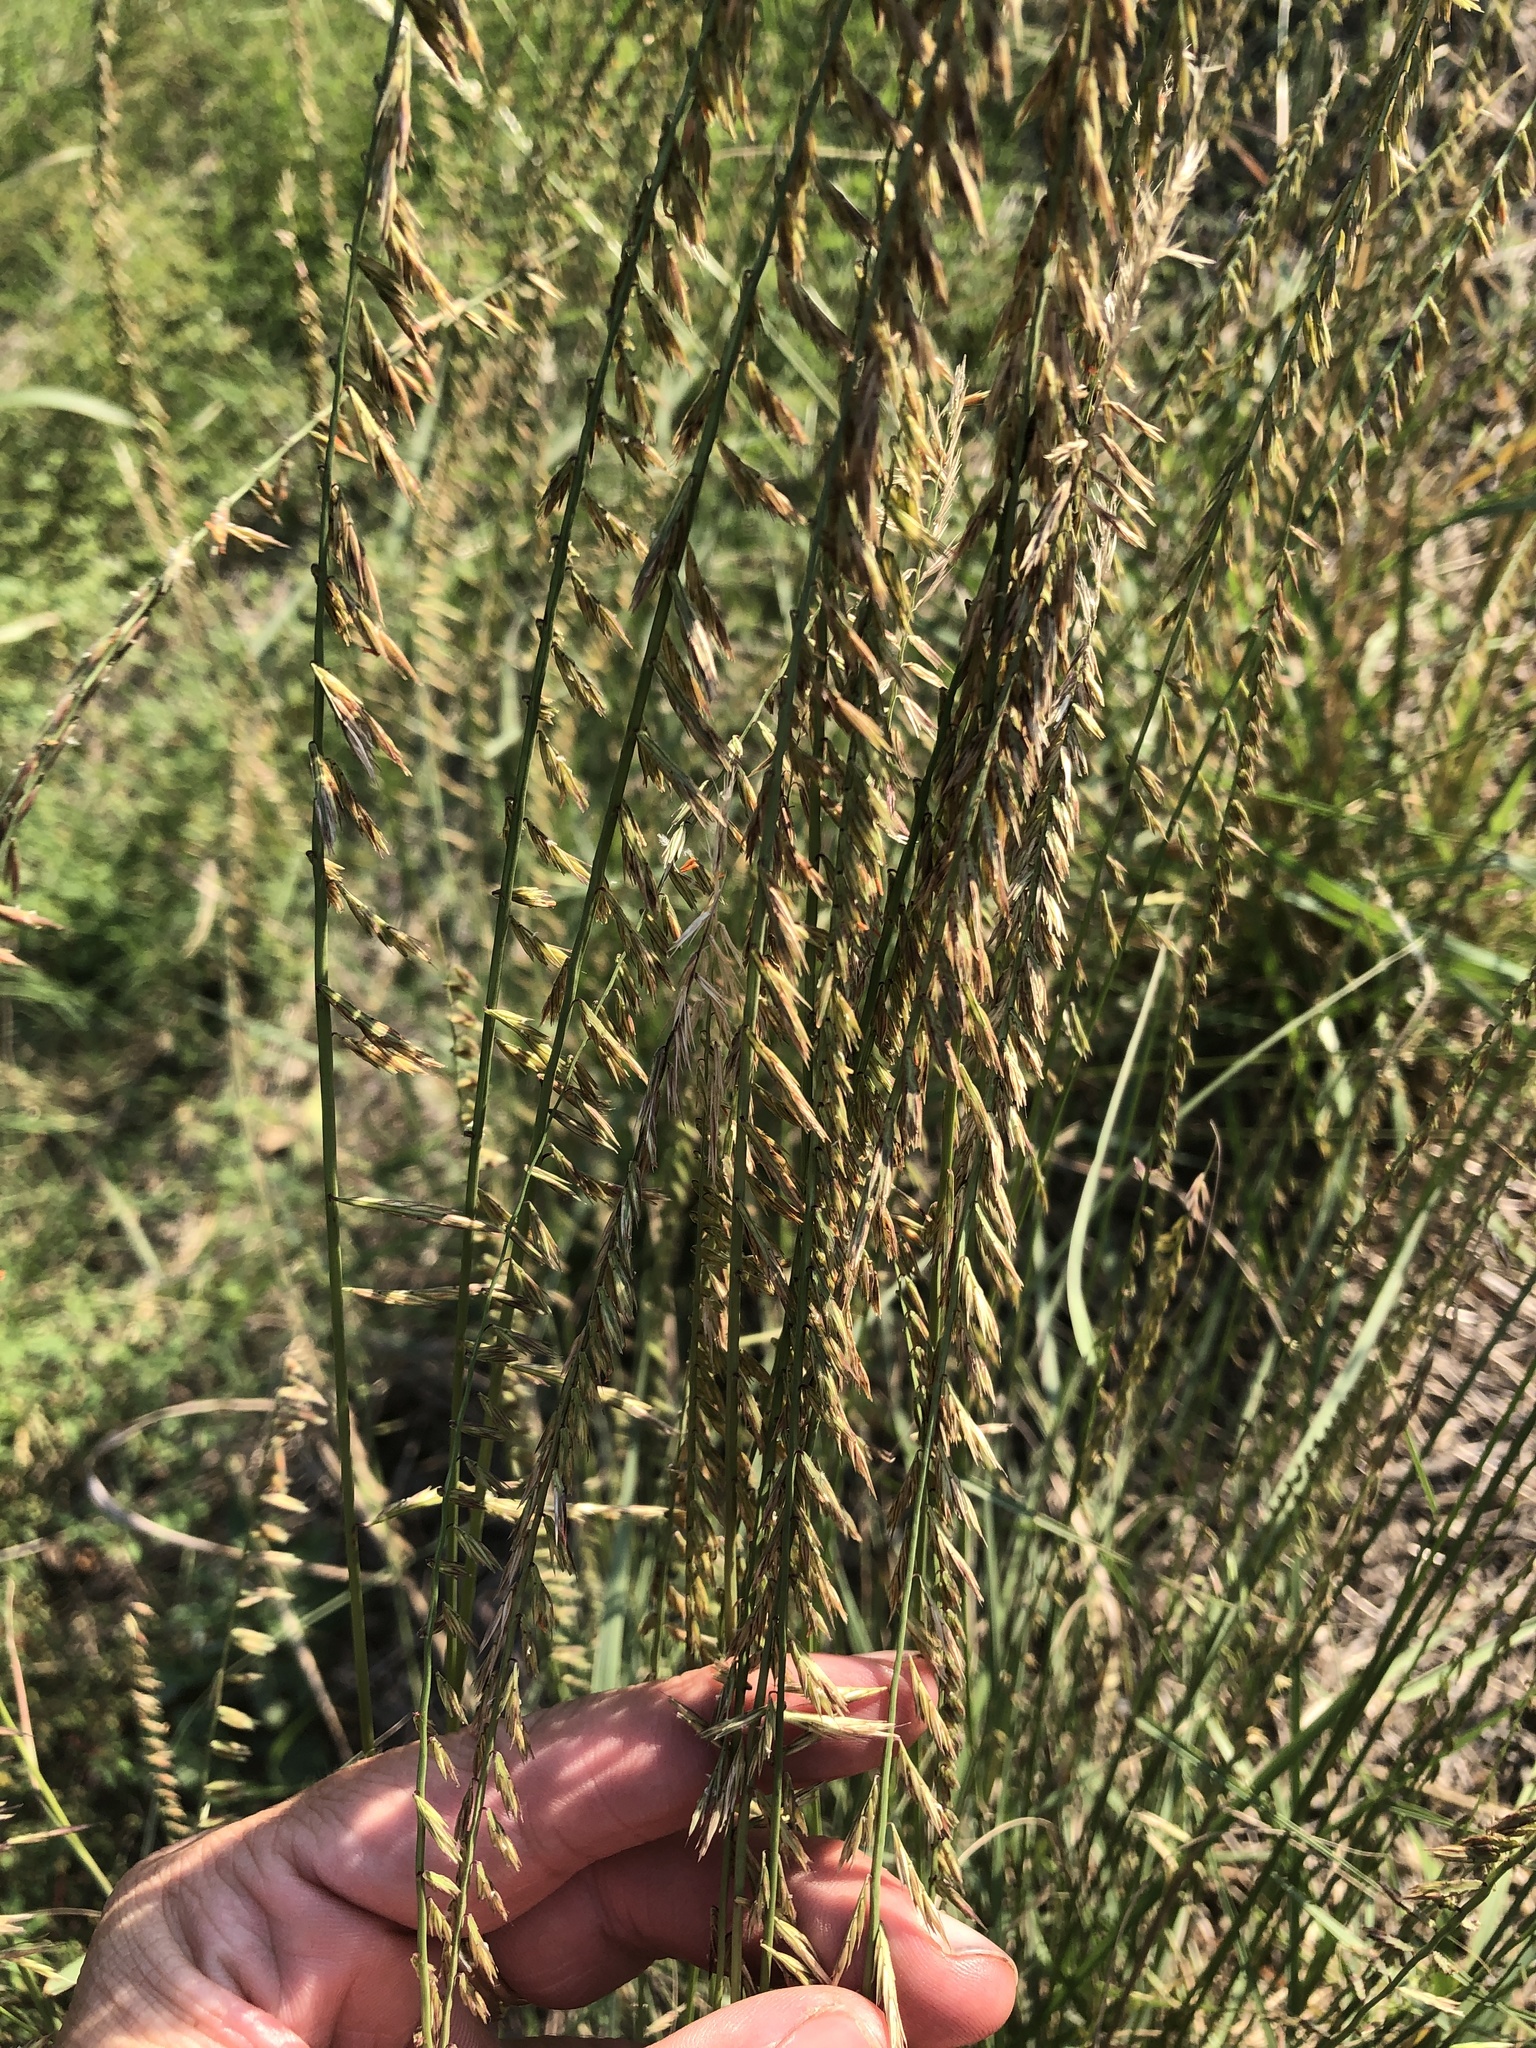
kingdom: Plantae
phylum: Tracheophyta
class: Liliopsida
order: Poales
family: Poaceae
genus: Bouteloua
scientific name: Bouteloua curtipendula
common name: Side-oats grama
